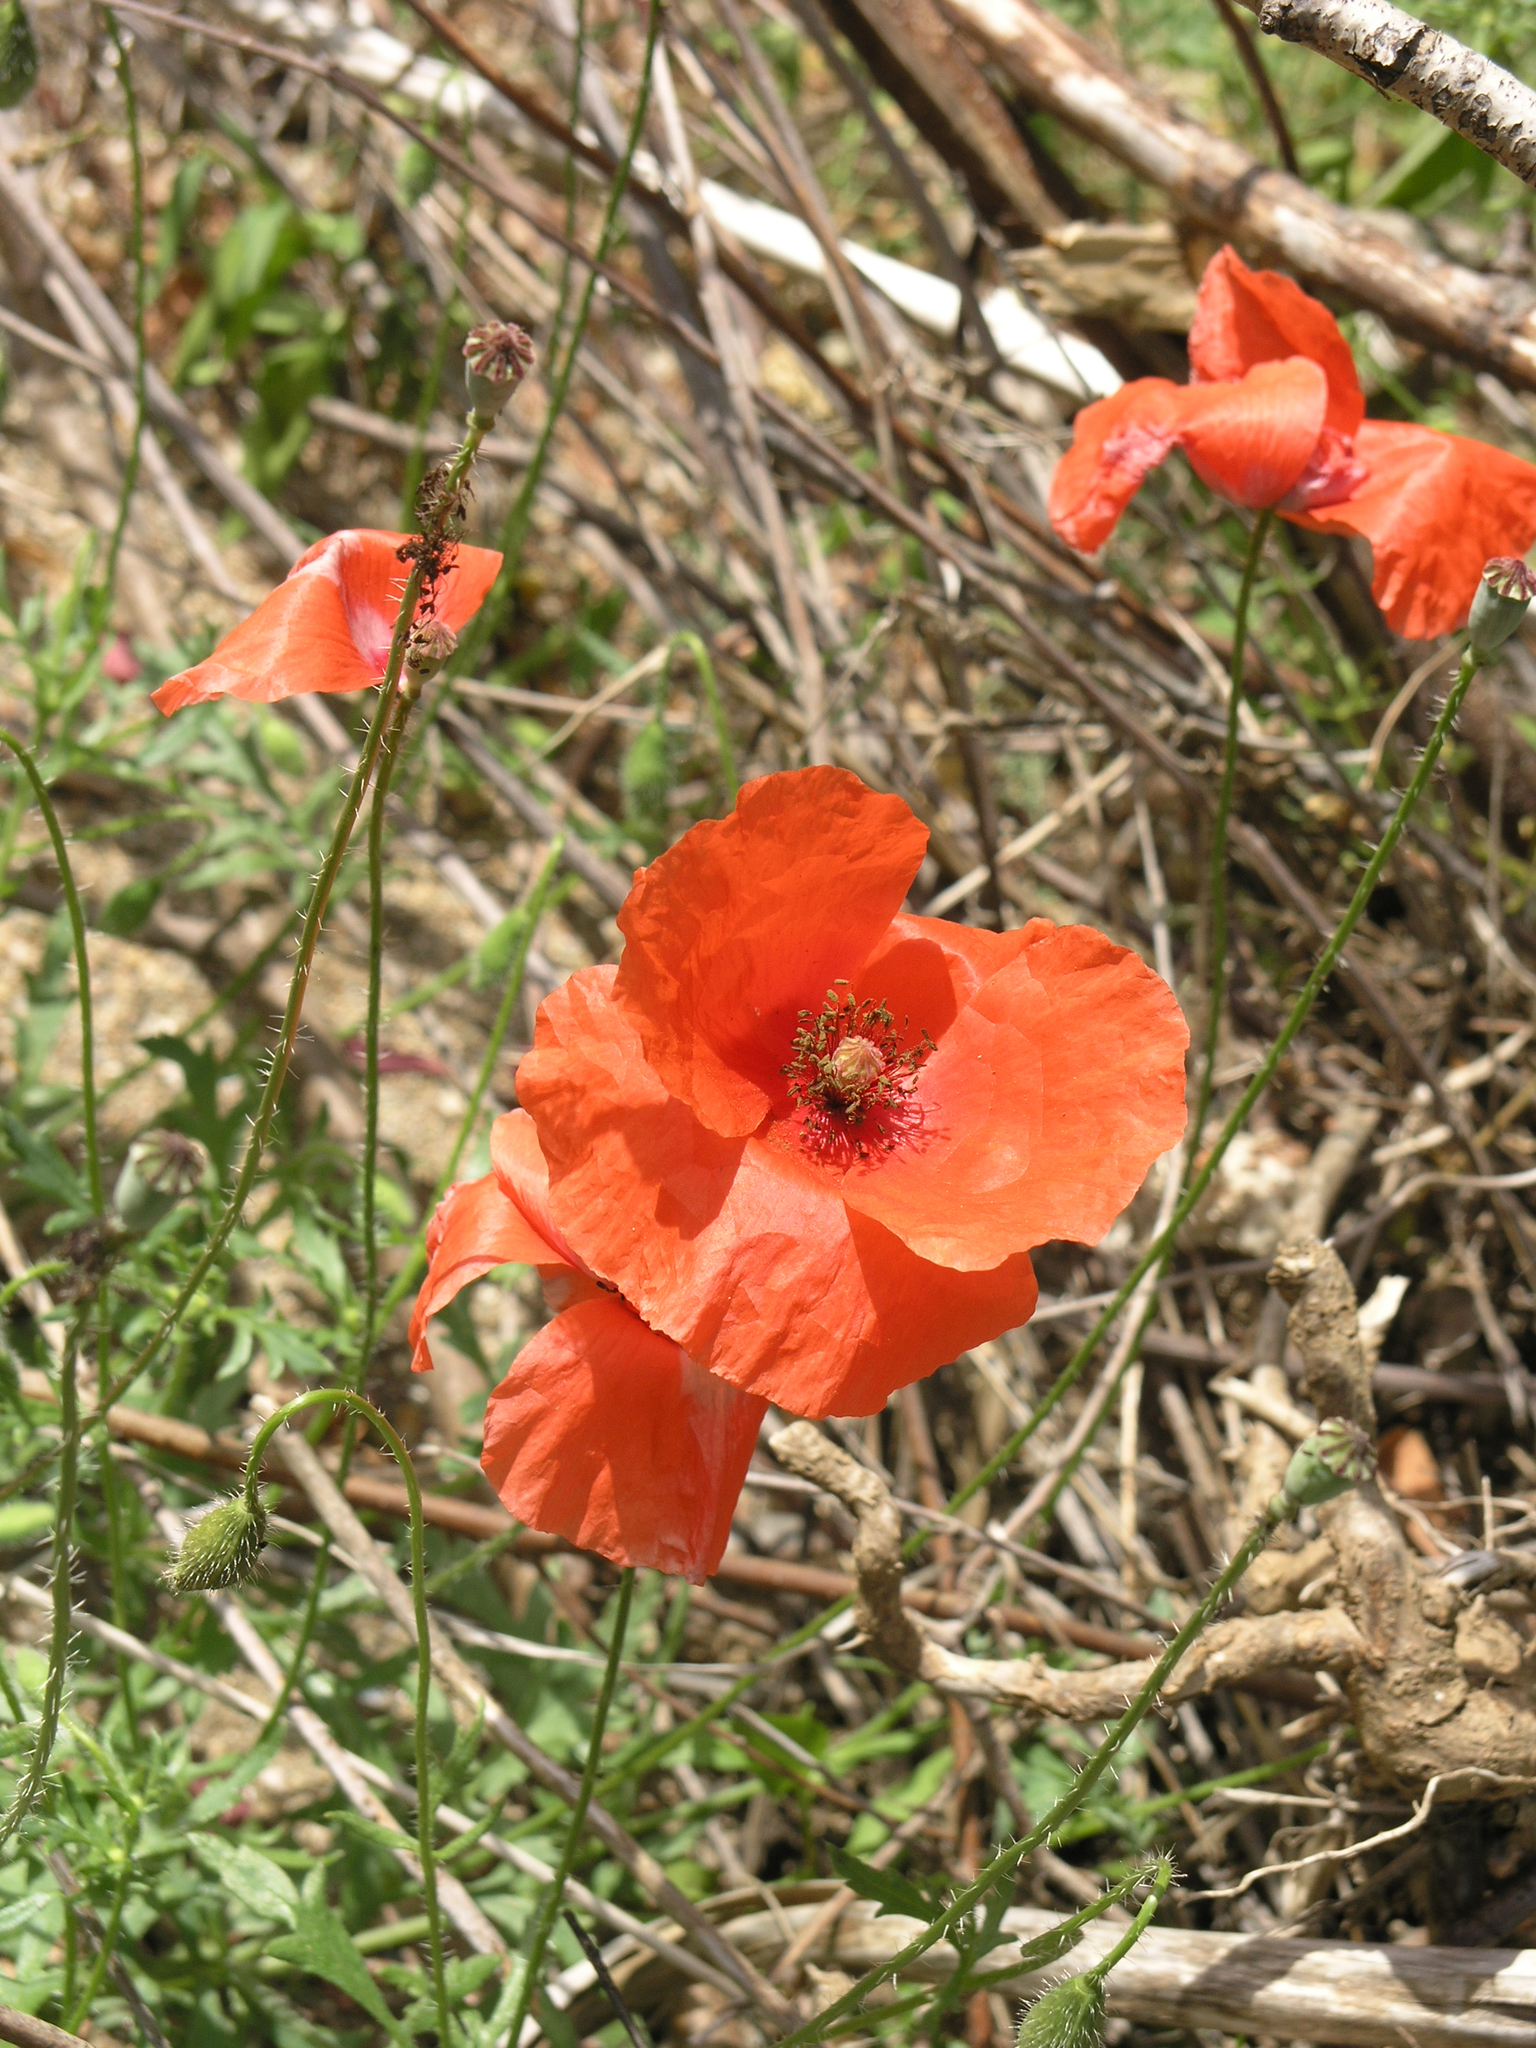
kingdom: Plantae
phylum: Tracheophyta
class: Magnoliopsida
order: Ranunculales
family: Papaveraceae
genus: Papaver
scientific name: Papaver rhoeas
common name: Corn poppy
